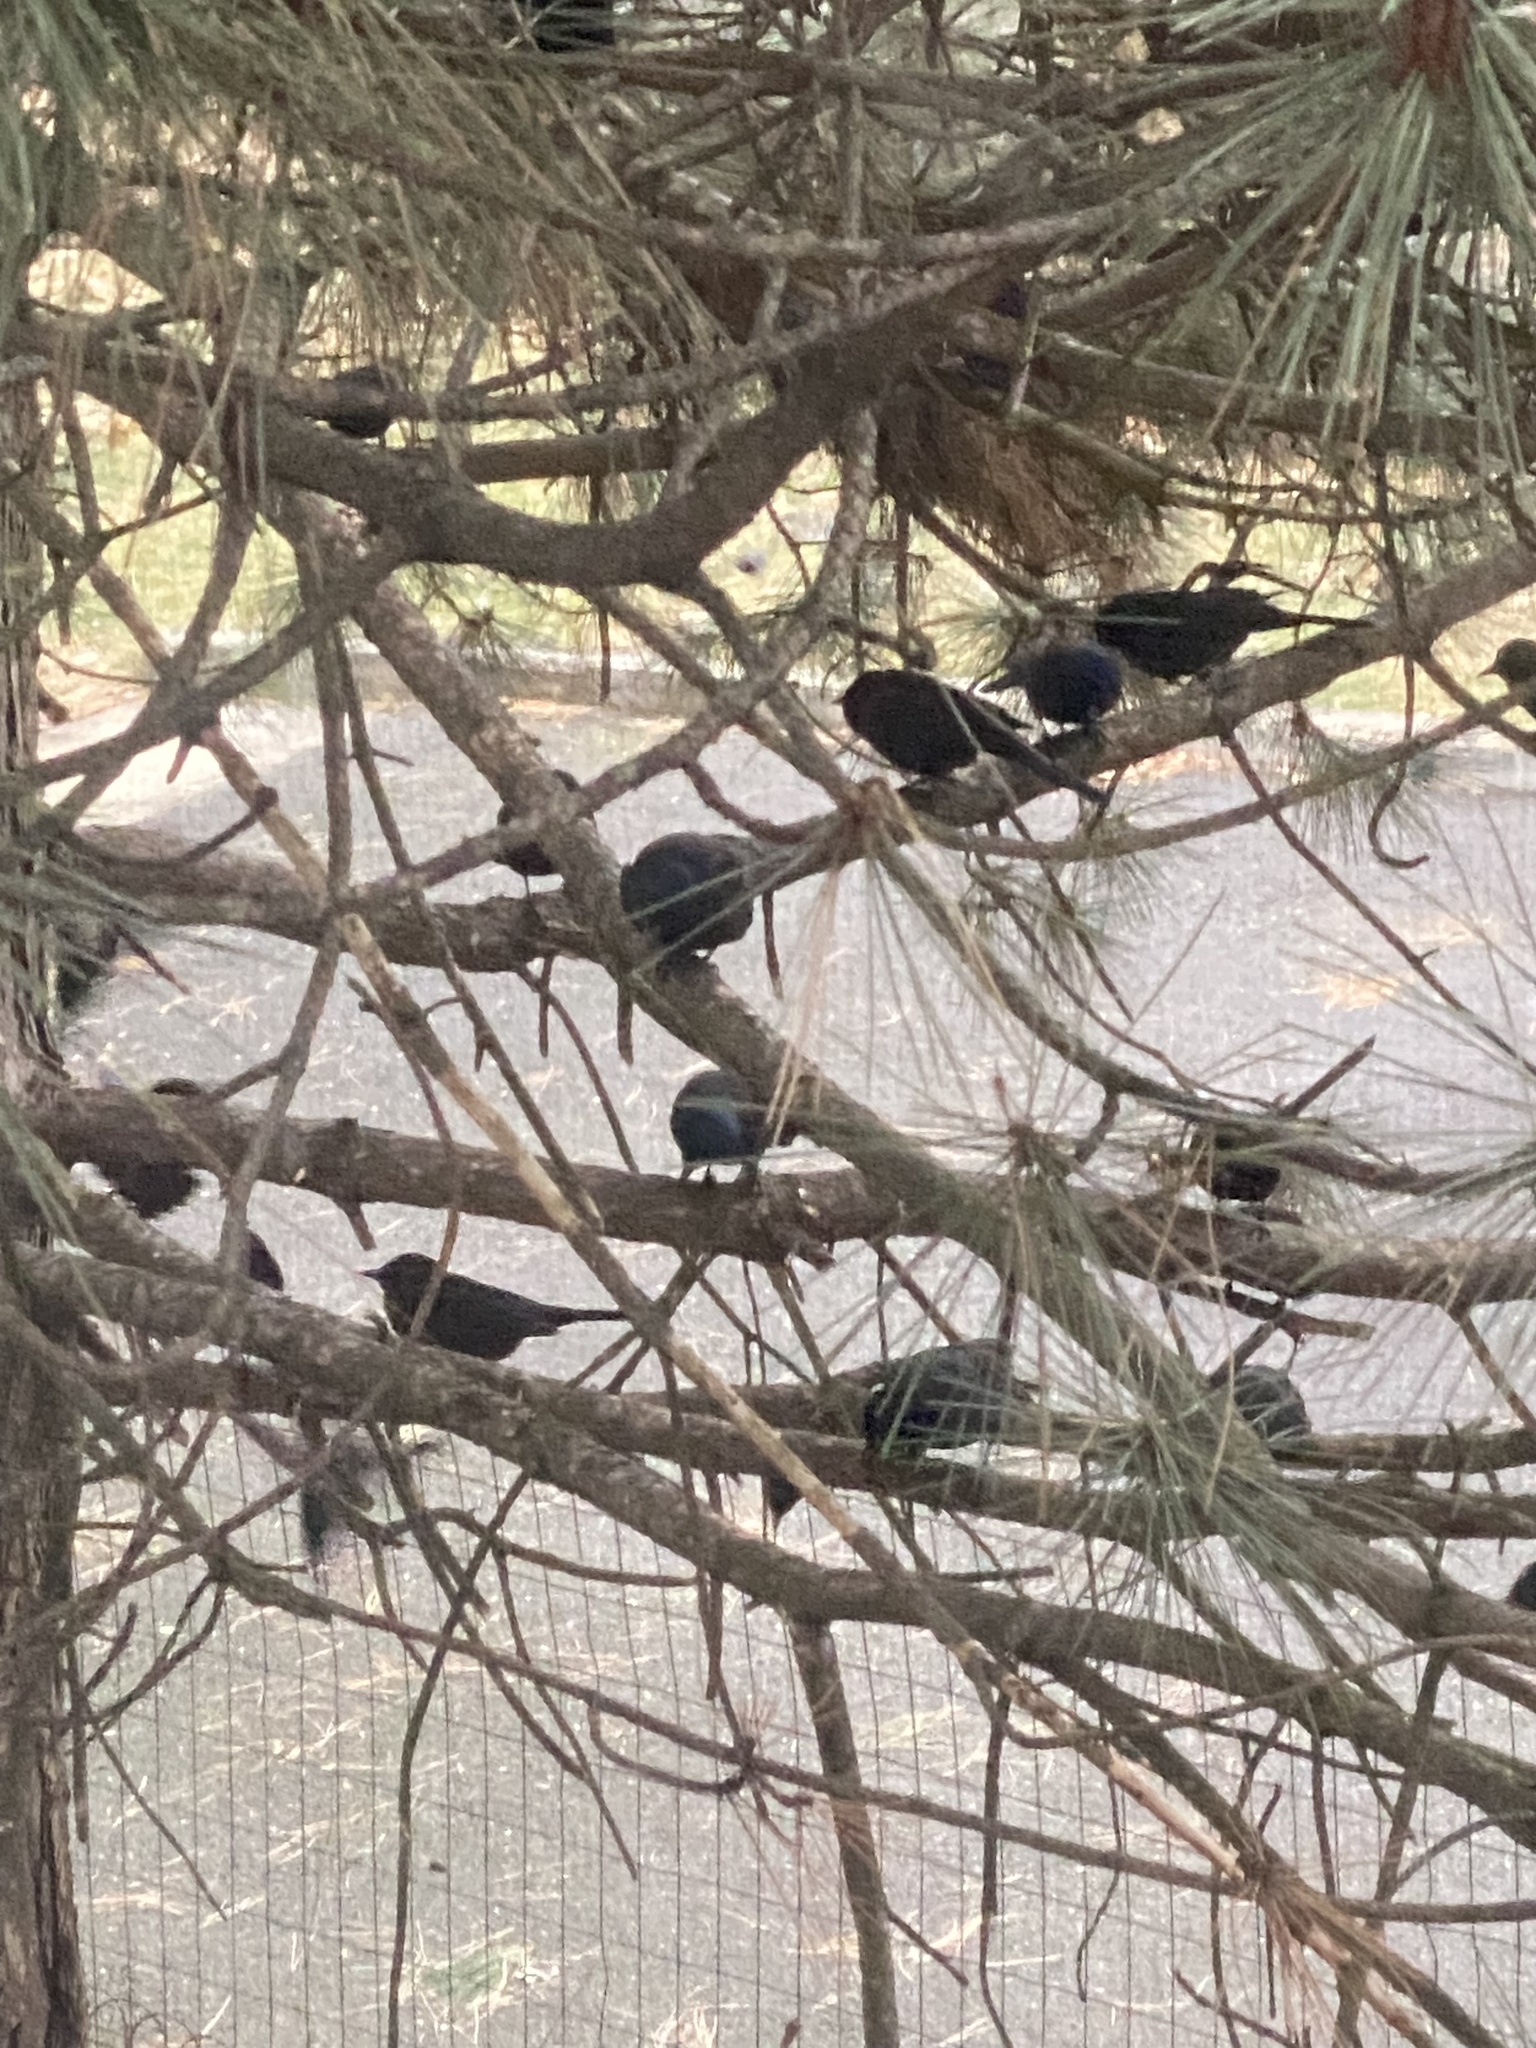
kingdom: Animalia
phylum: Chordata
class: Aves
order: Passeriformes
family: Icteridae
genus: Quiscalus
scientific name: Quiscalus quiscula
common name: Common grackle
